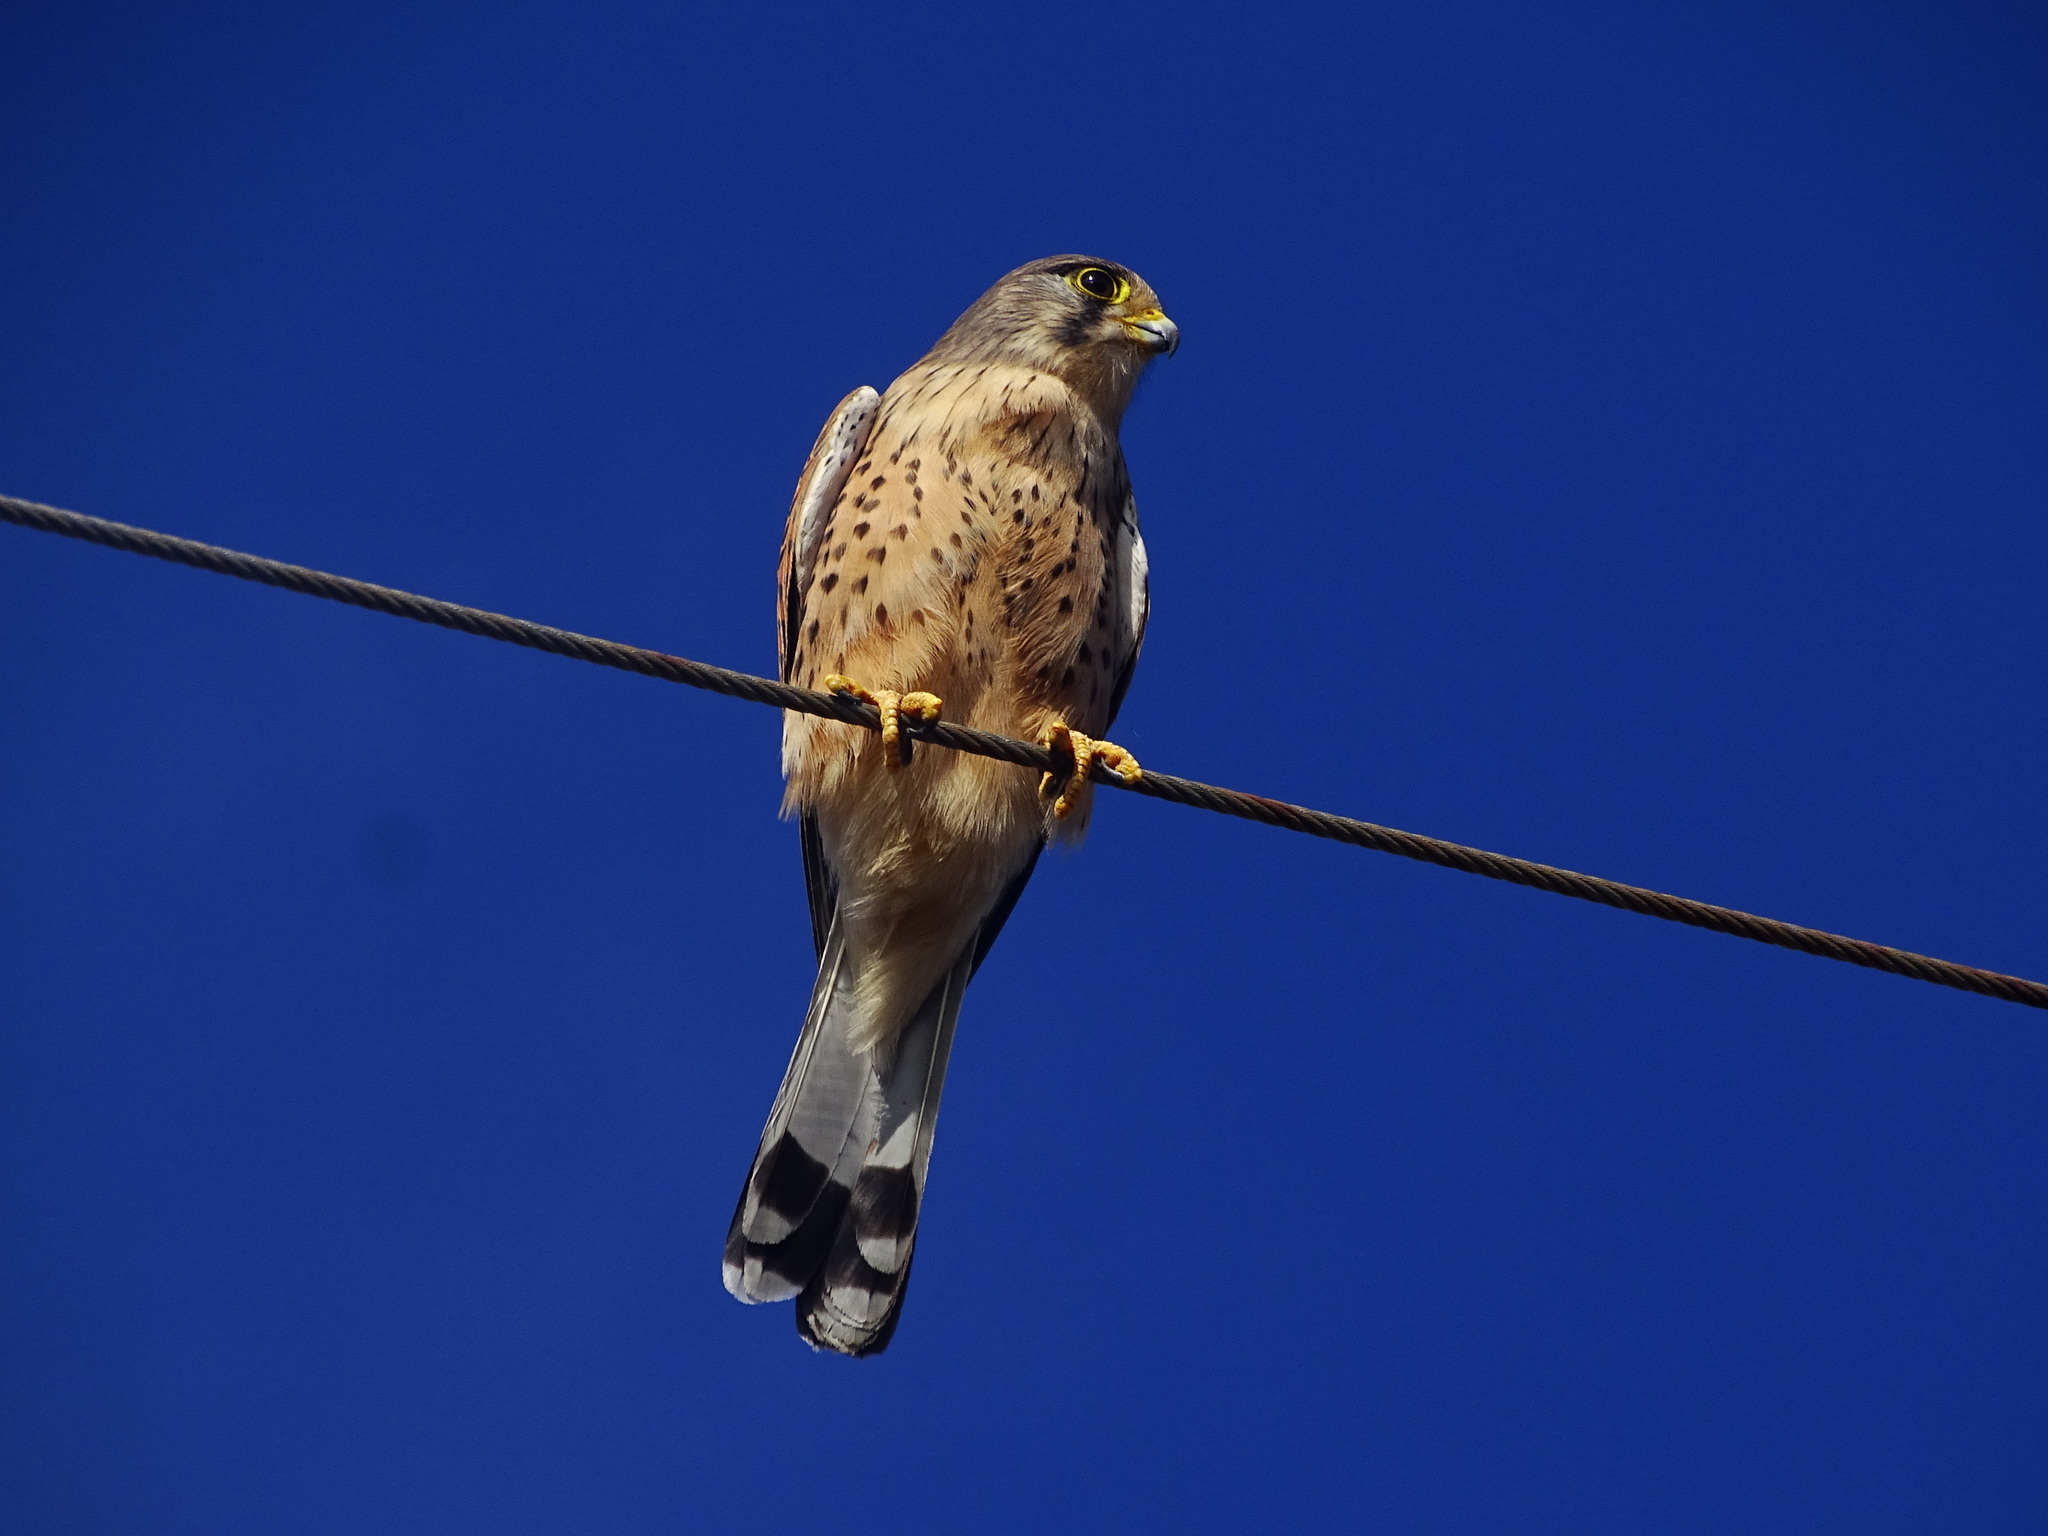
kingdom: Animalia
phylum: Chordata
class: Aves
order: Falconiformes
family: Falconidae
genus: Falco
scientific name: Falco tinnunculus
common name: Common kestrel
